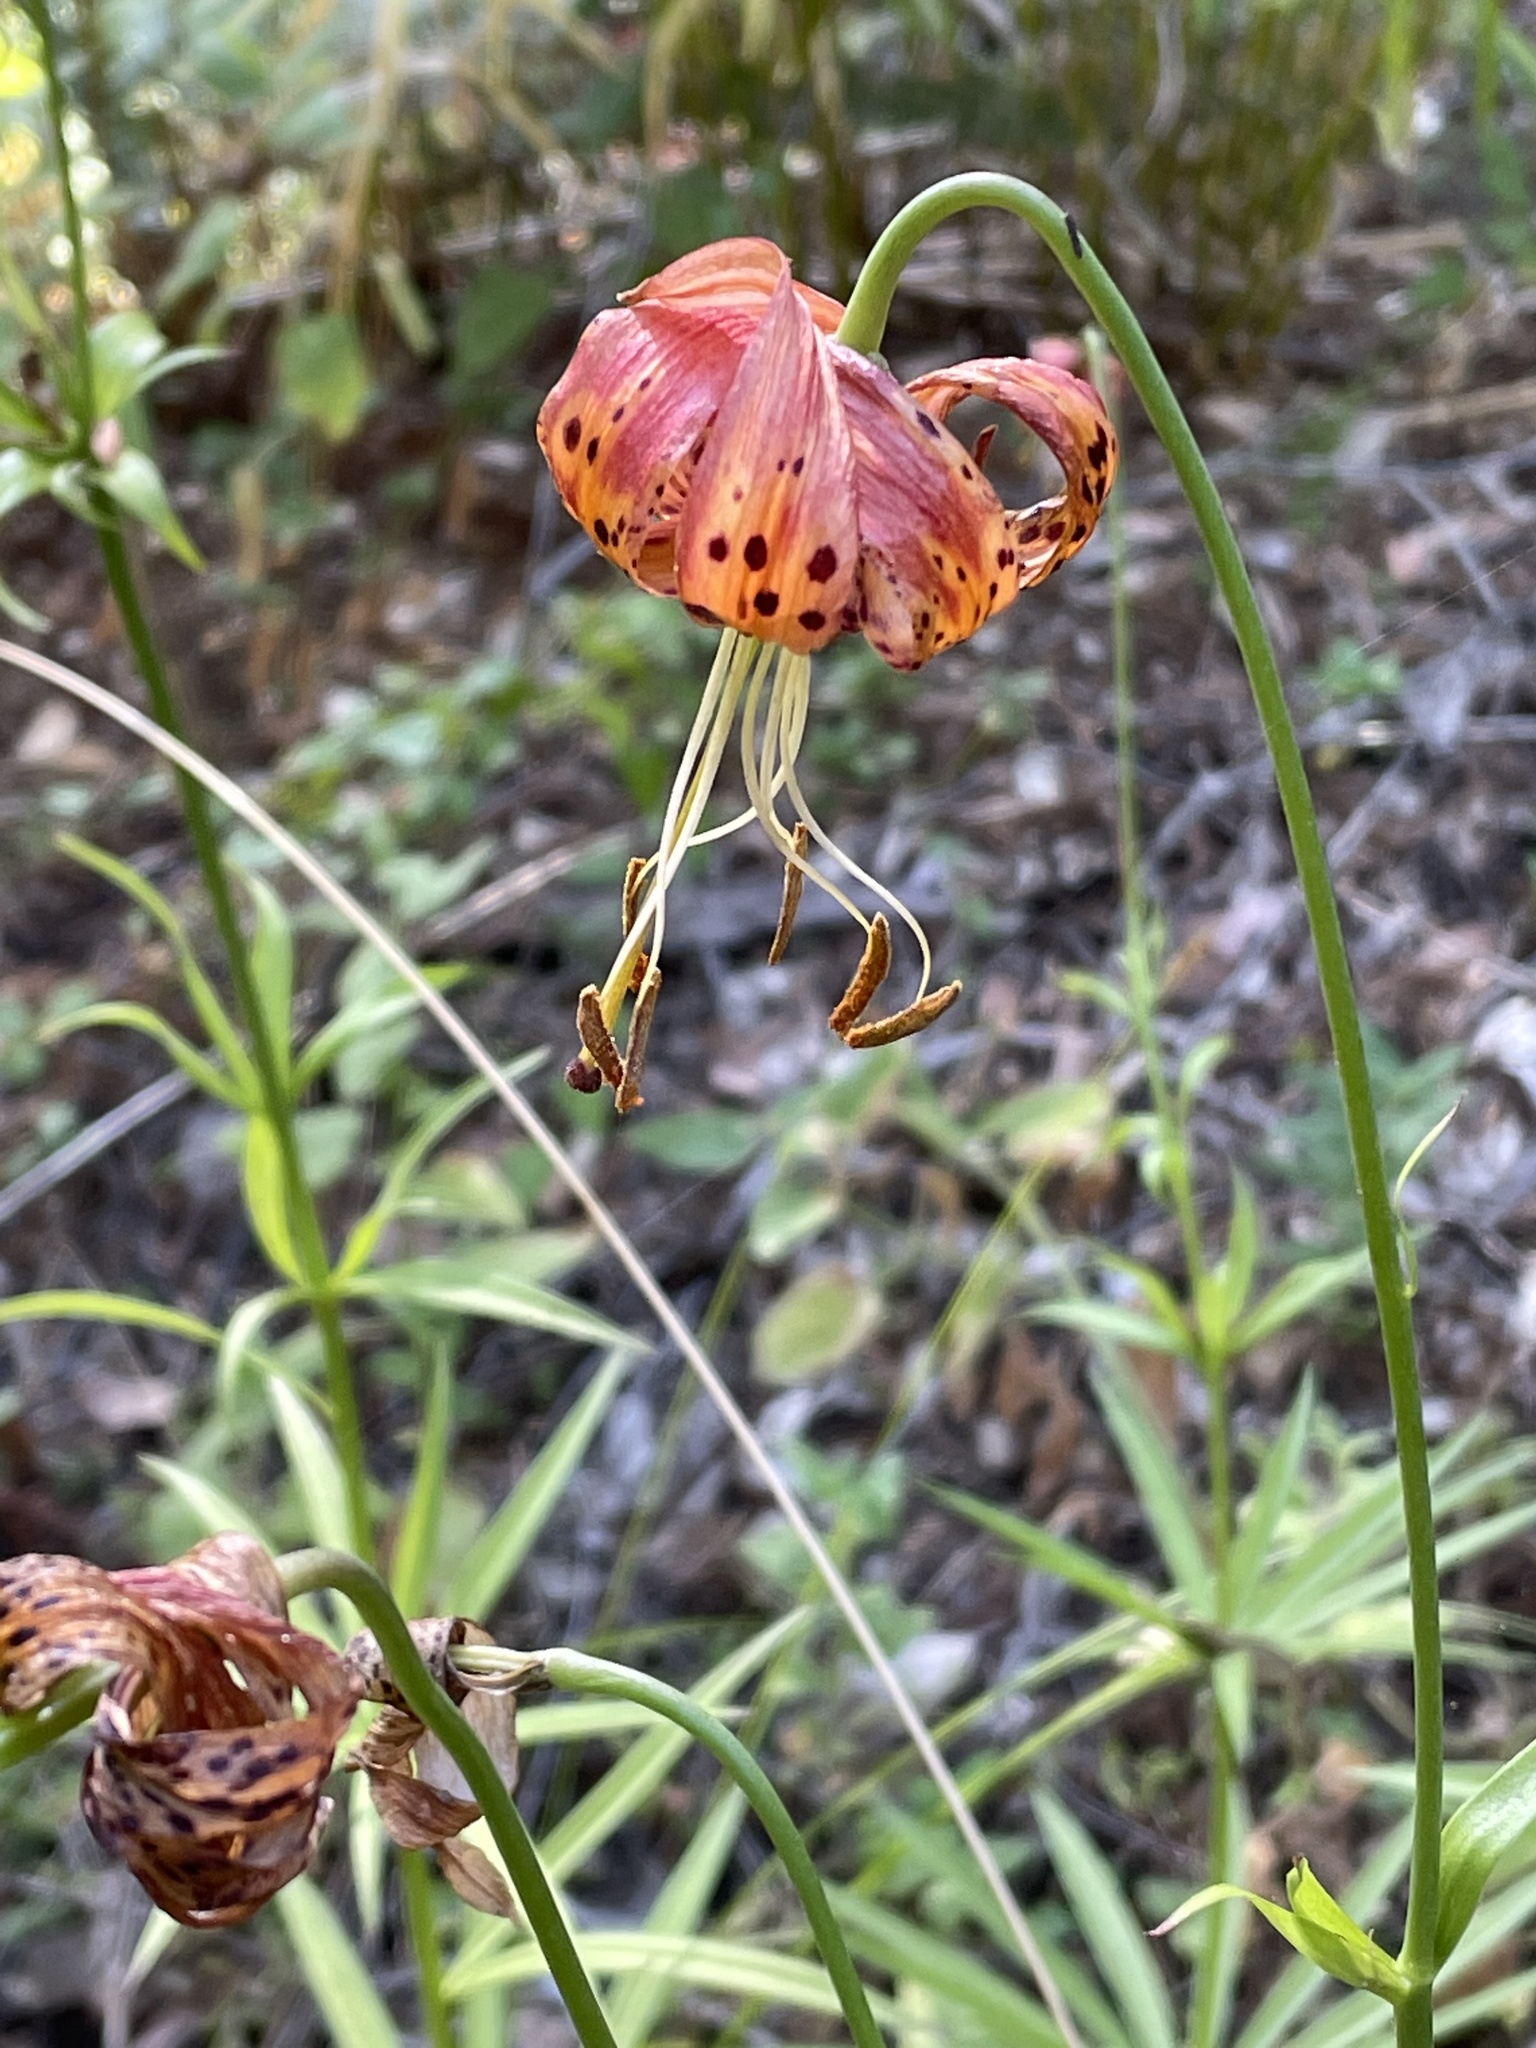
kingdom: Plantae
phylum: Tracheophyta
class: Liliopsida
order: Liliales
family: Liliaceae
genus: Lilium
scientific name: Lilium pardalinum
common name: Panther lily
